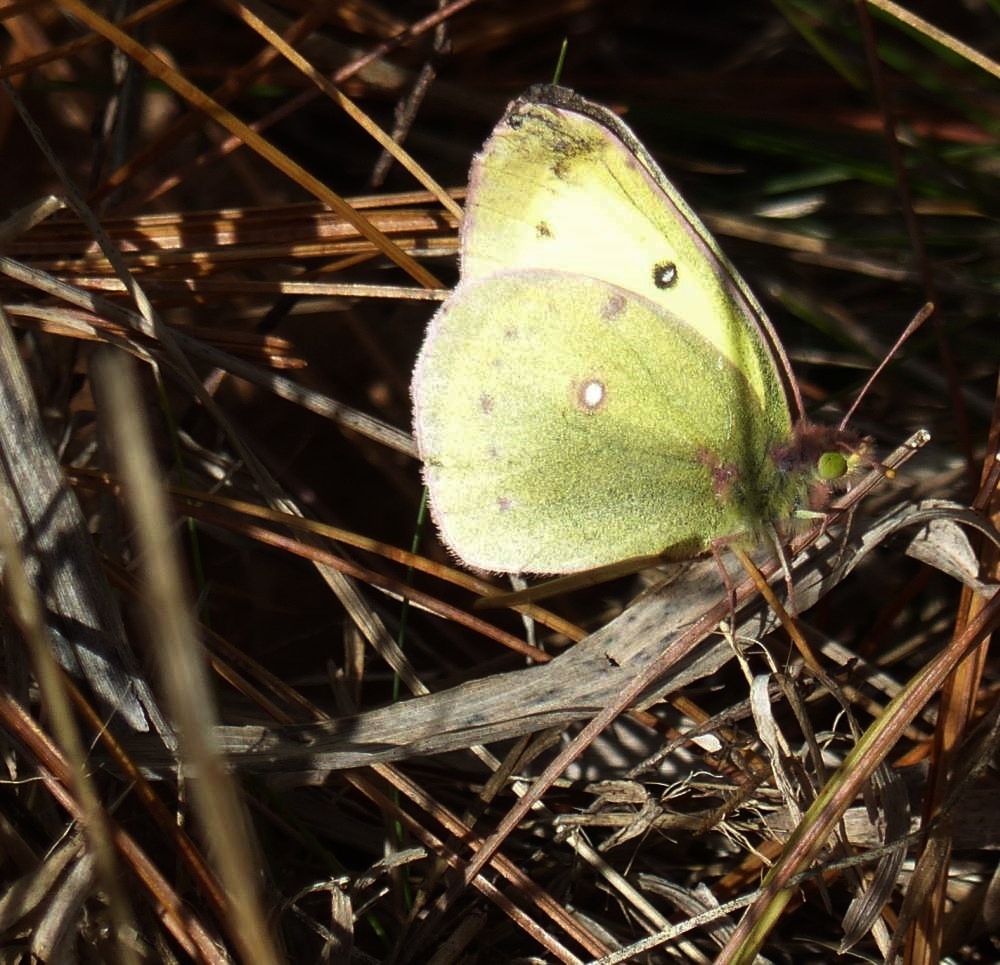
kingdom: Animalia
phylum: Arthropoda
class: Insecta
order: Lepidoptera
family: Pieridae
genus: Colias
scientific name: Colias philodice
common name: Clouded sulphur
